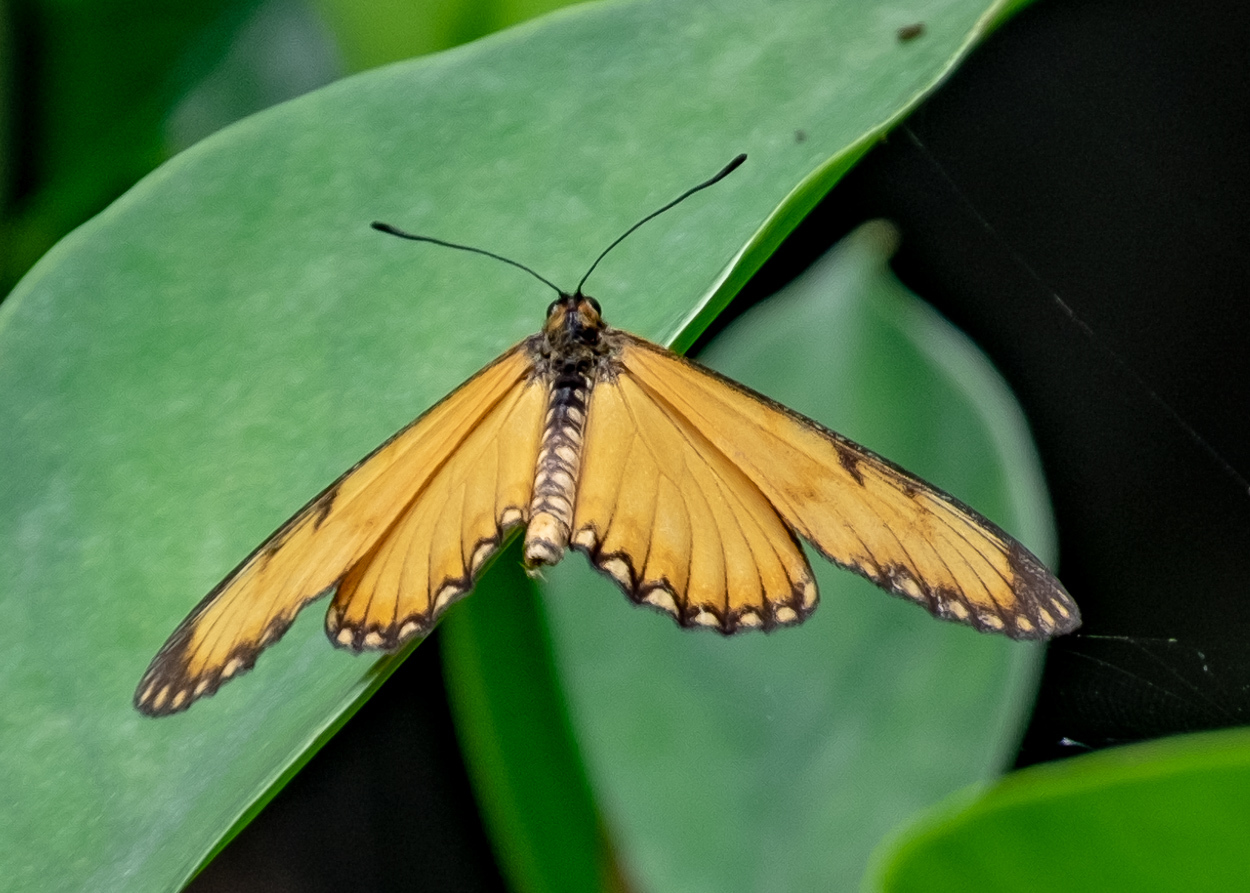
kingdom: Animalia
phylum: Arthropoda
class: Insecta
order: Lepidoptera
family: Nymphalidae
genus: Acraea
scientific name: Acraea Telchinia issoria
